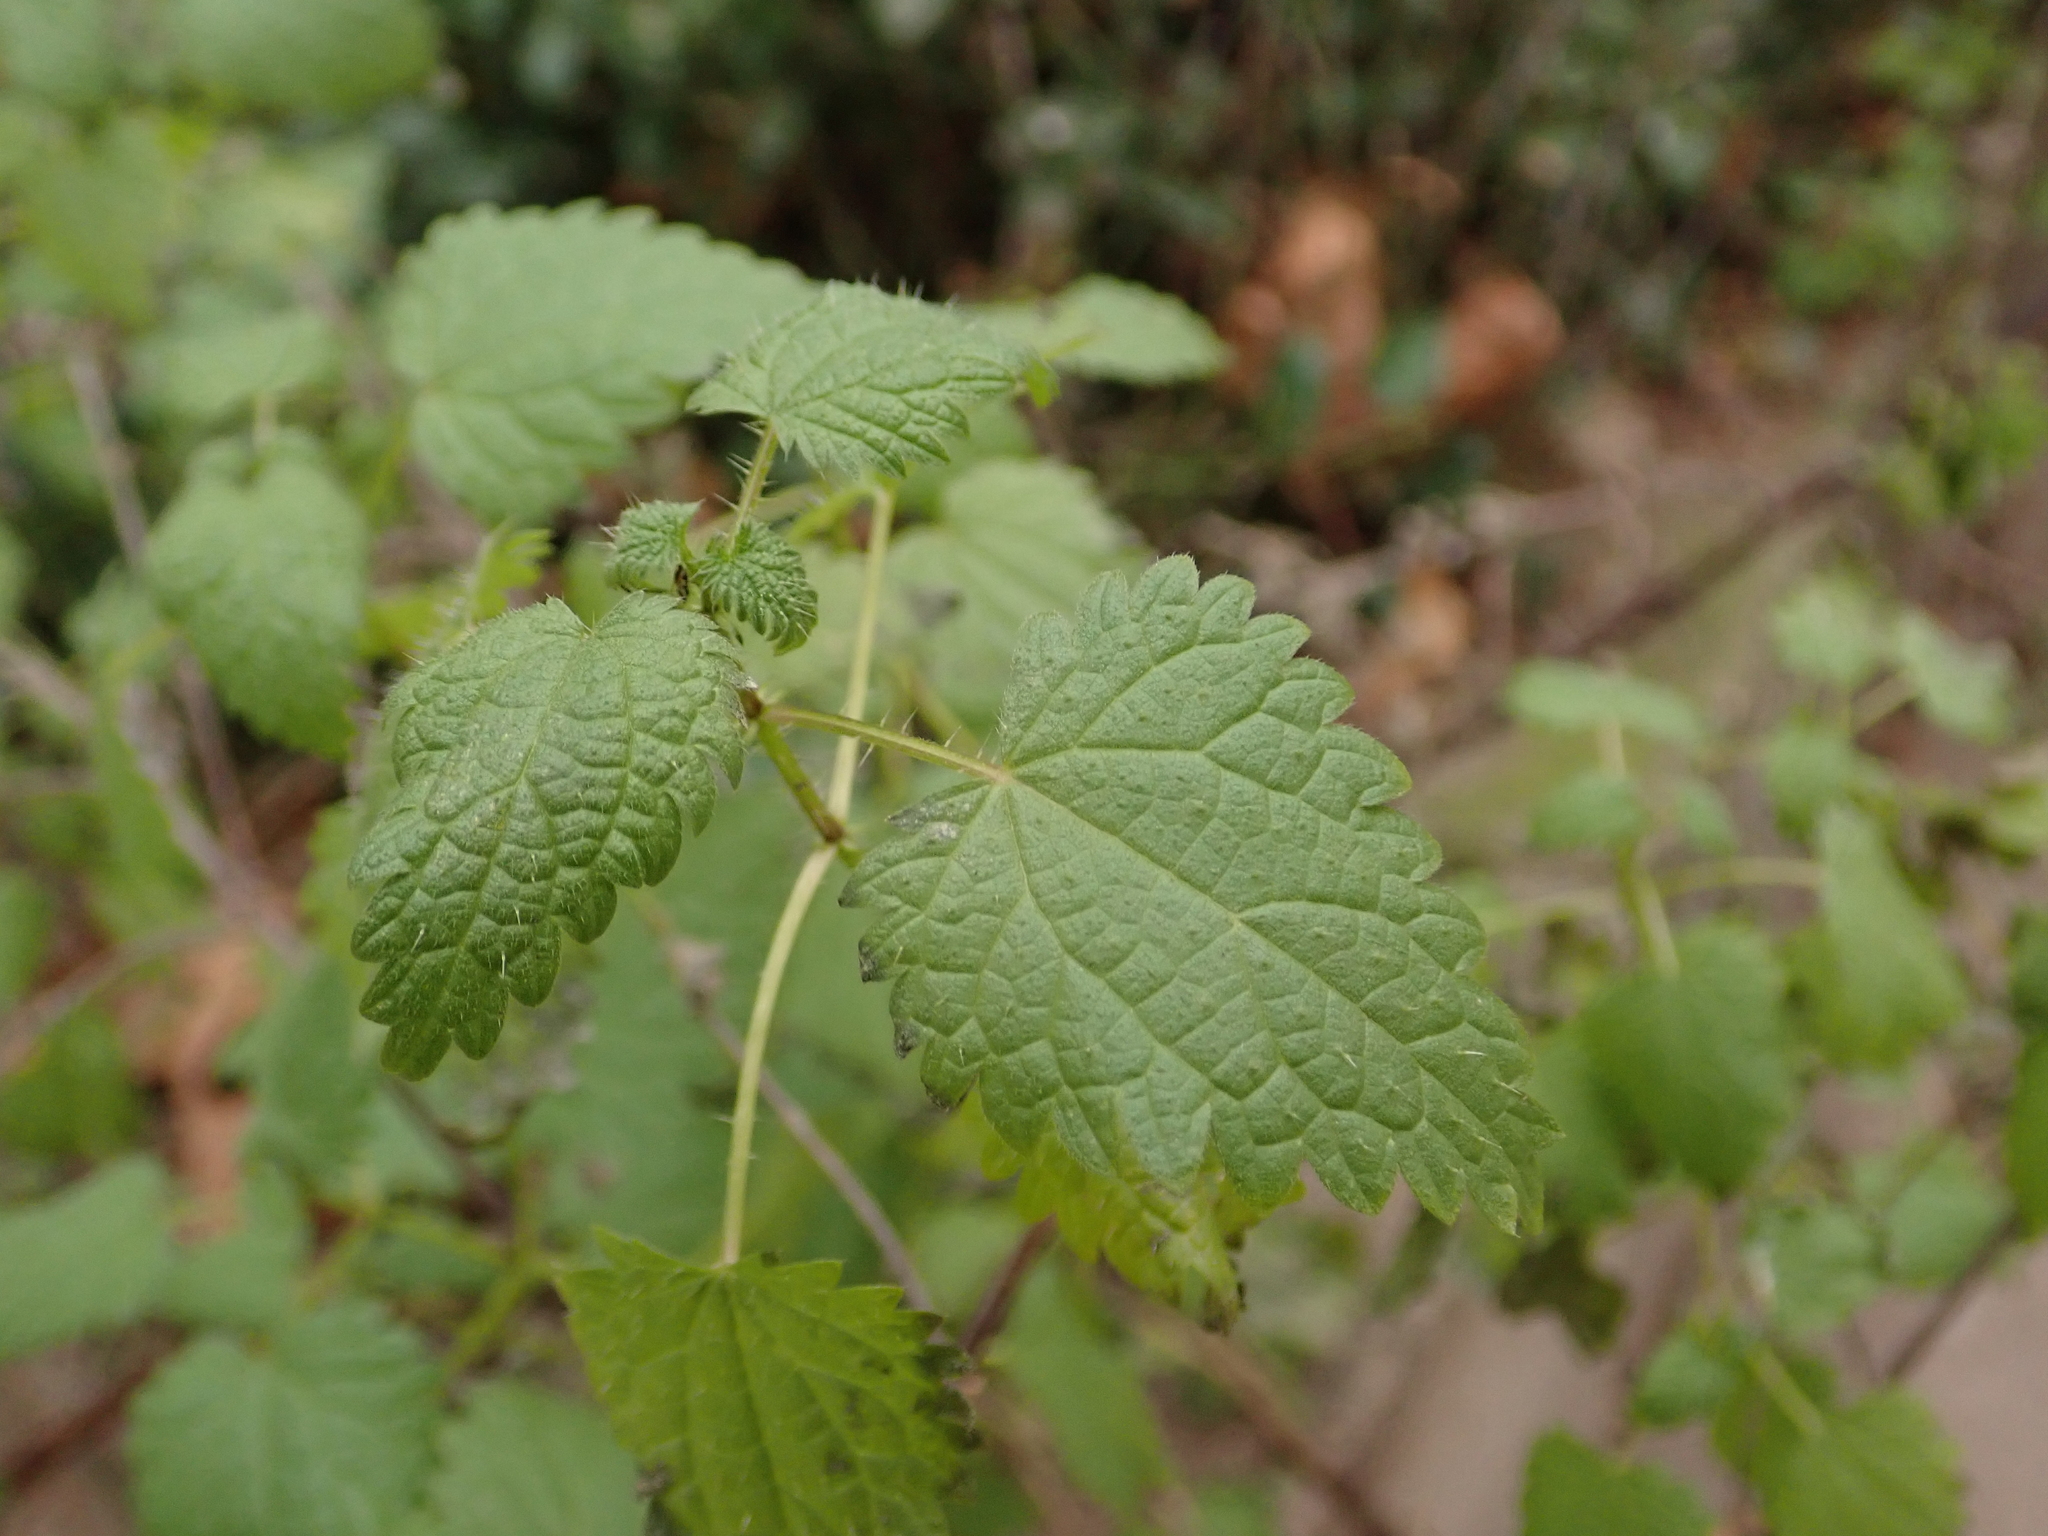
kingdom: Plantae
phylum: Tracheophyta
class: Magnoliopsida
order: Rosales
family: Urticaceae
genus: Urtica
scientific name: Urtica dioica
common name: Common nettle
